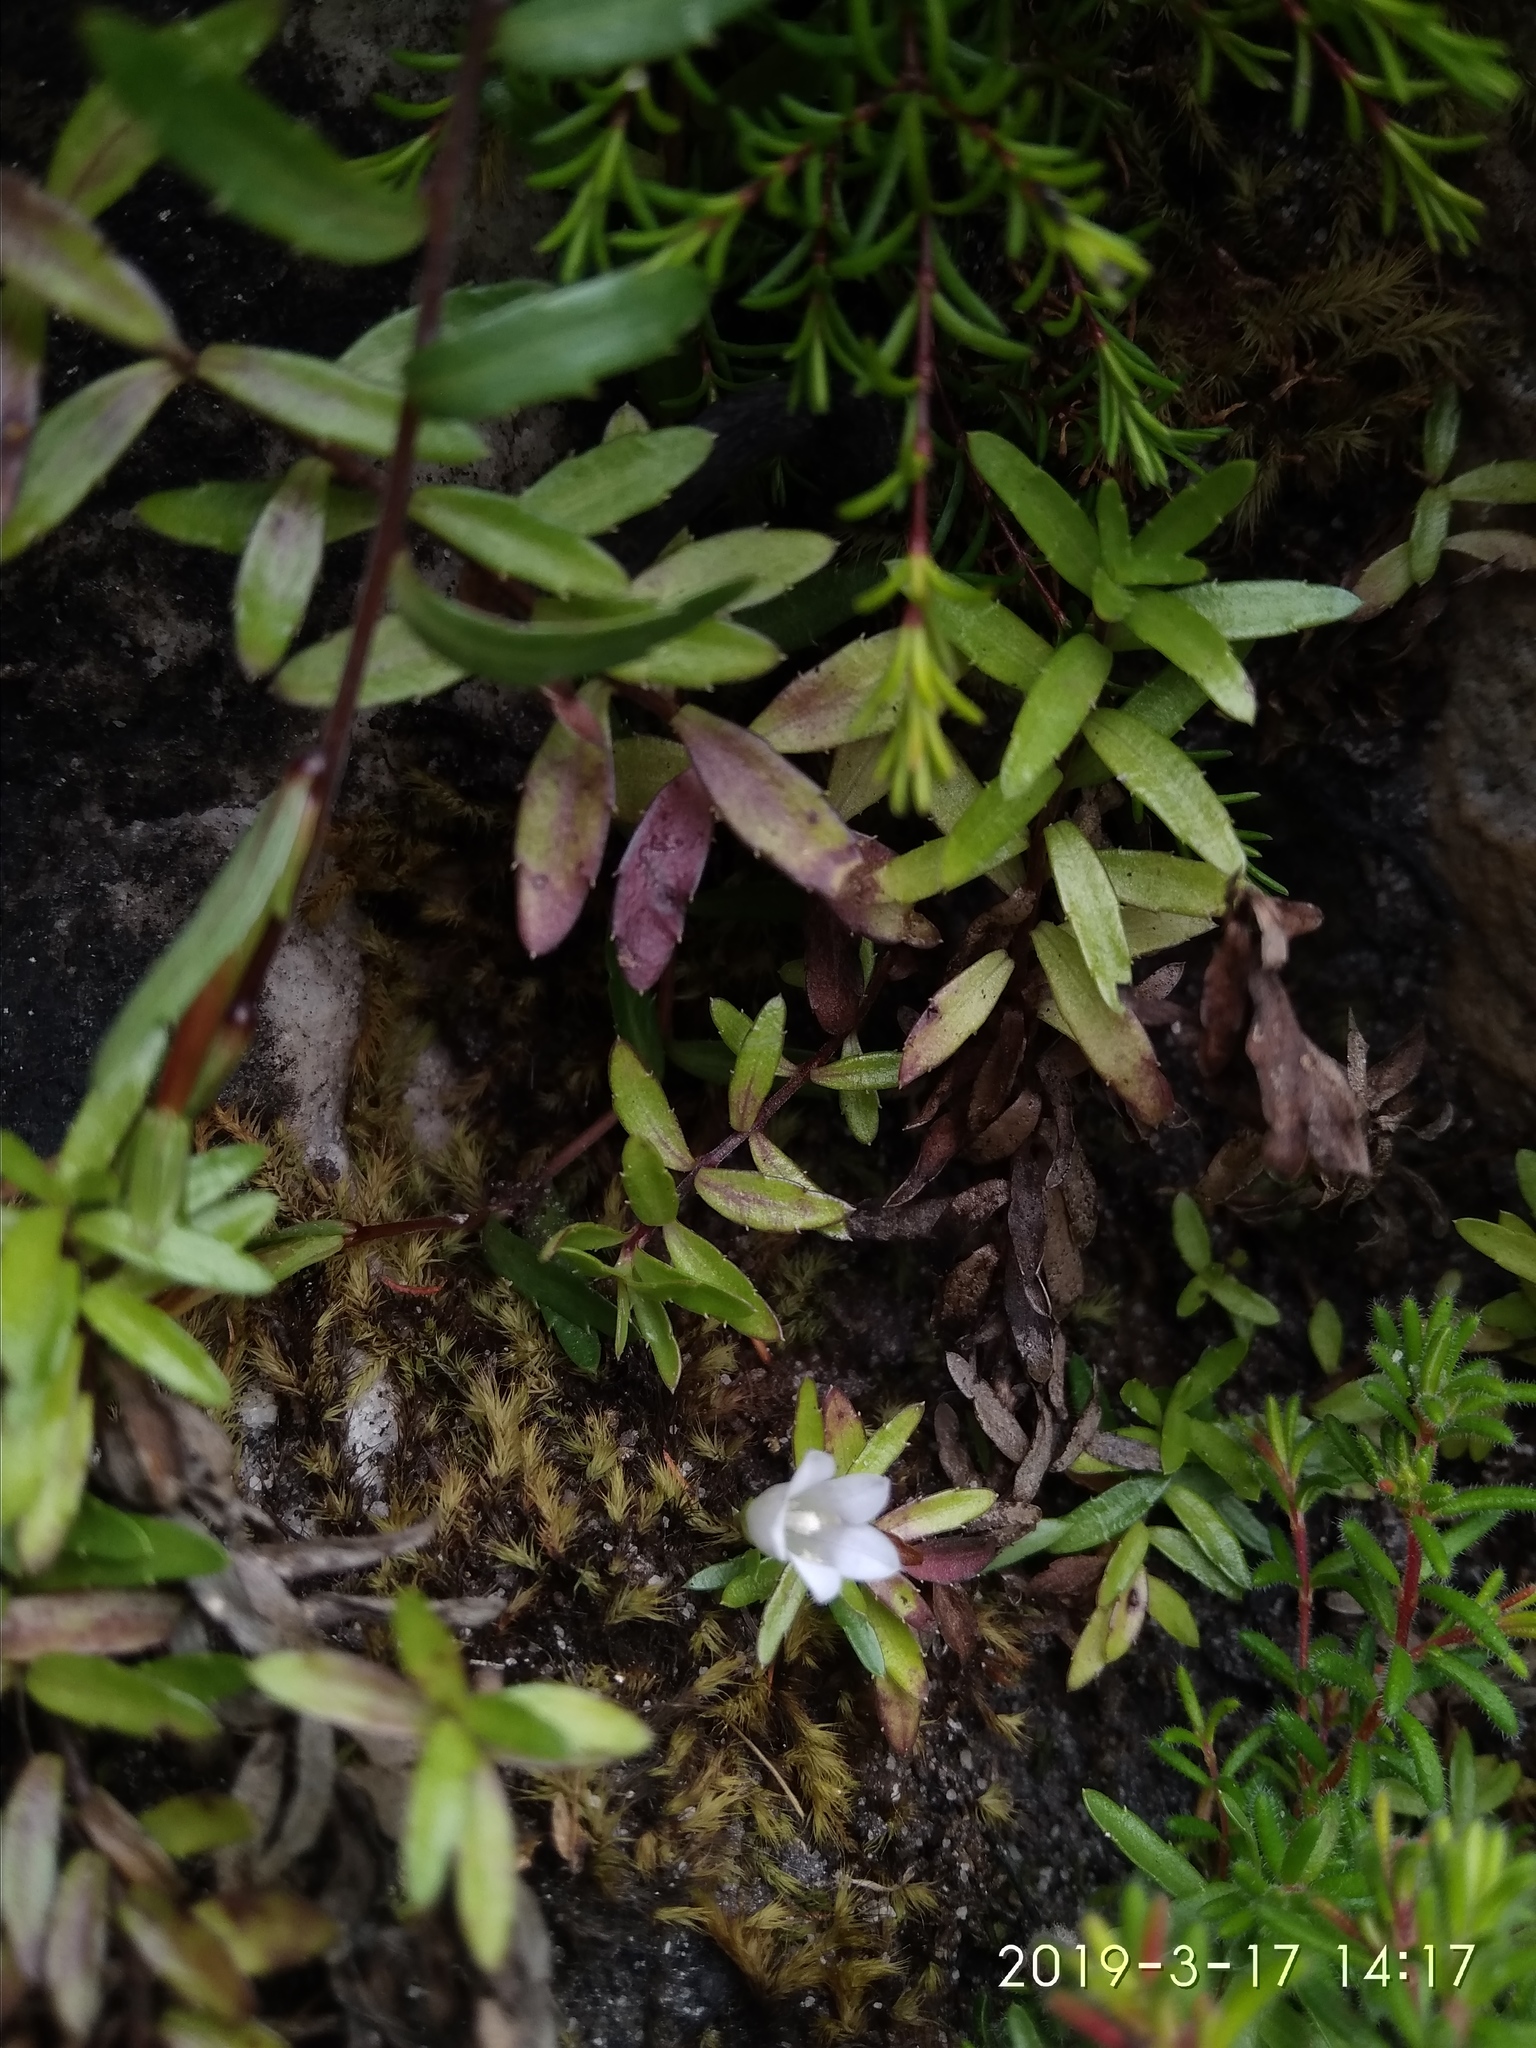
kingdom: Plantae
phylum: Tracheophyta
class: Magnoliopsida
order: Asterales
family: Campanulaceae
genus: Prismatocarpus
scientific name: Prismatocarpus nitidus
